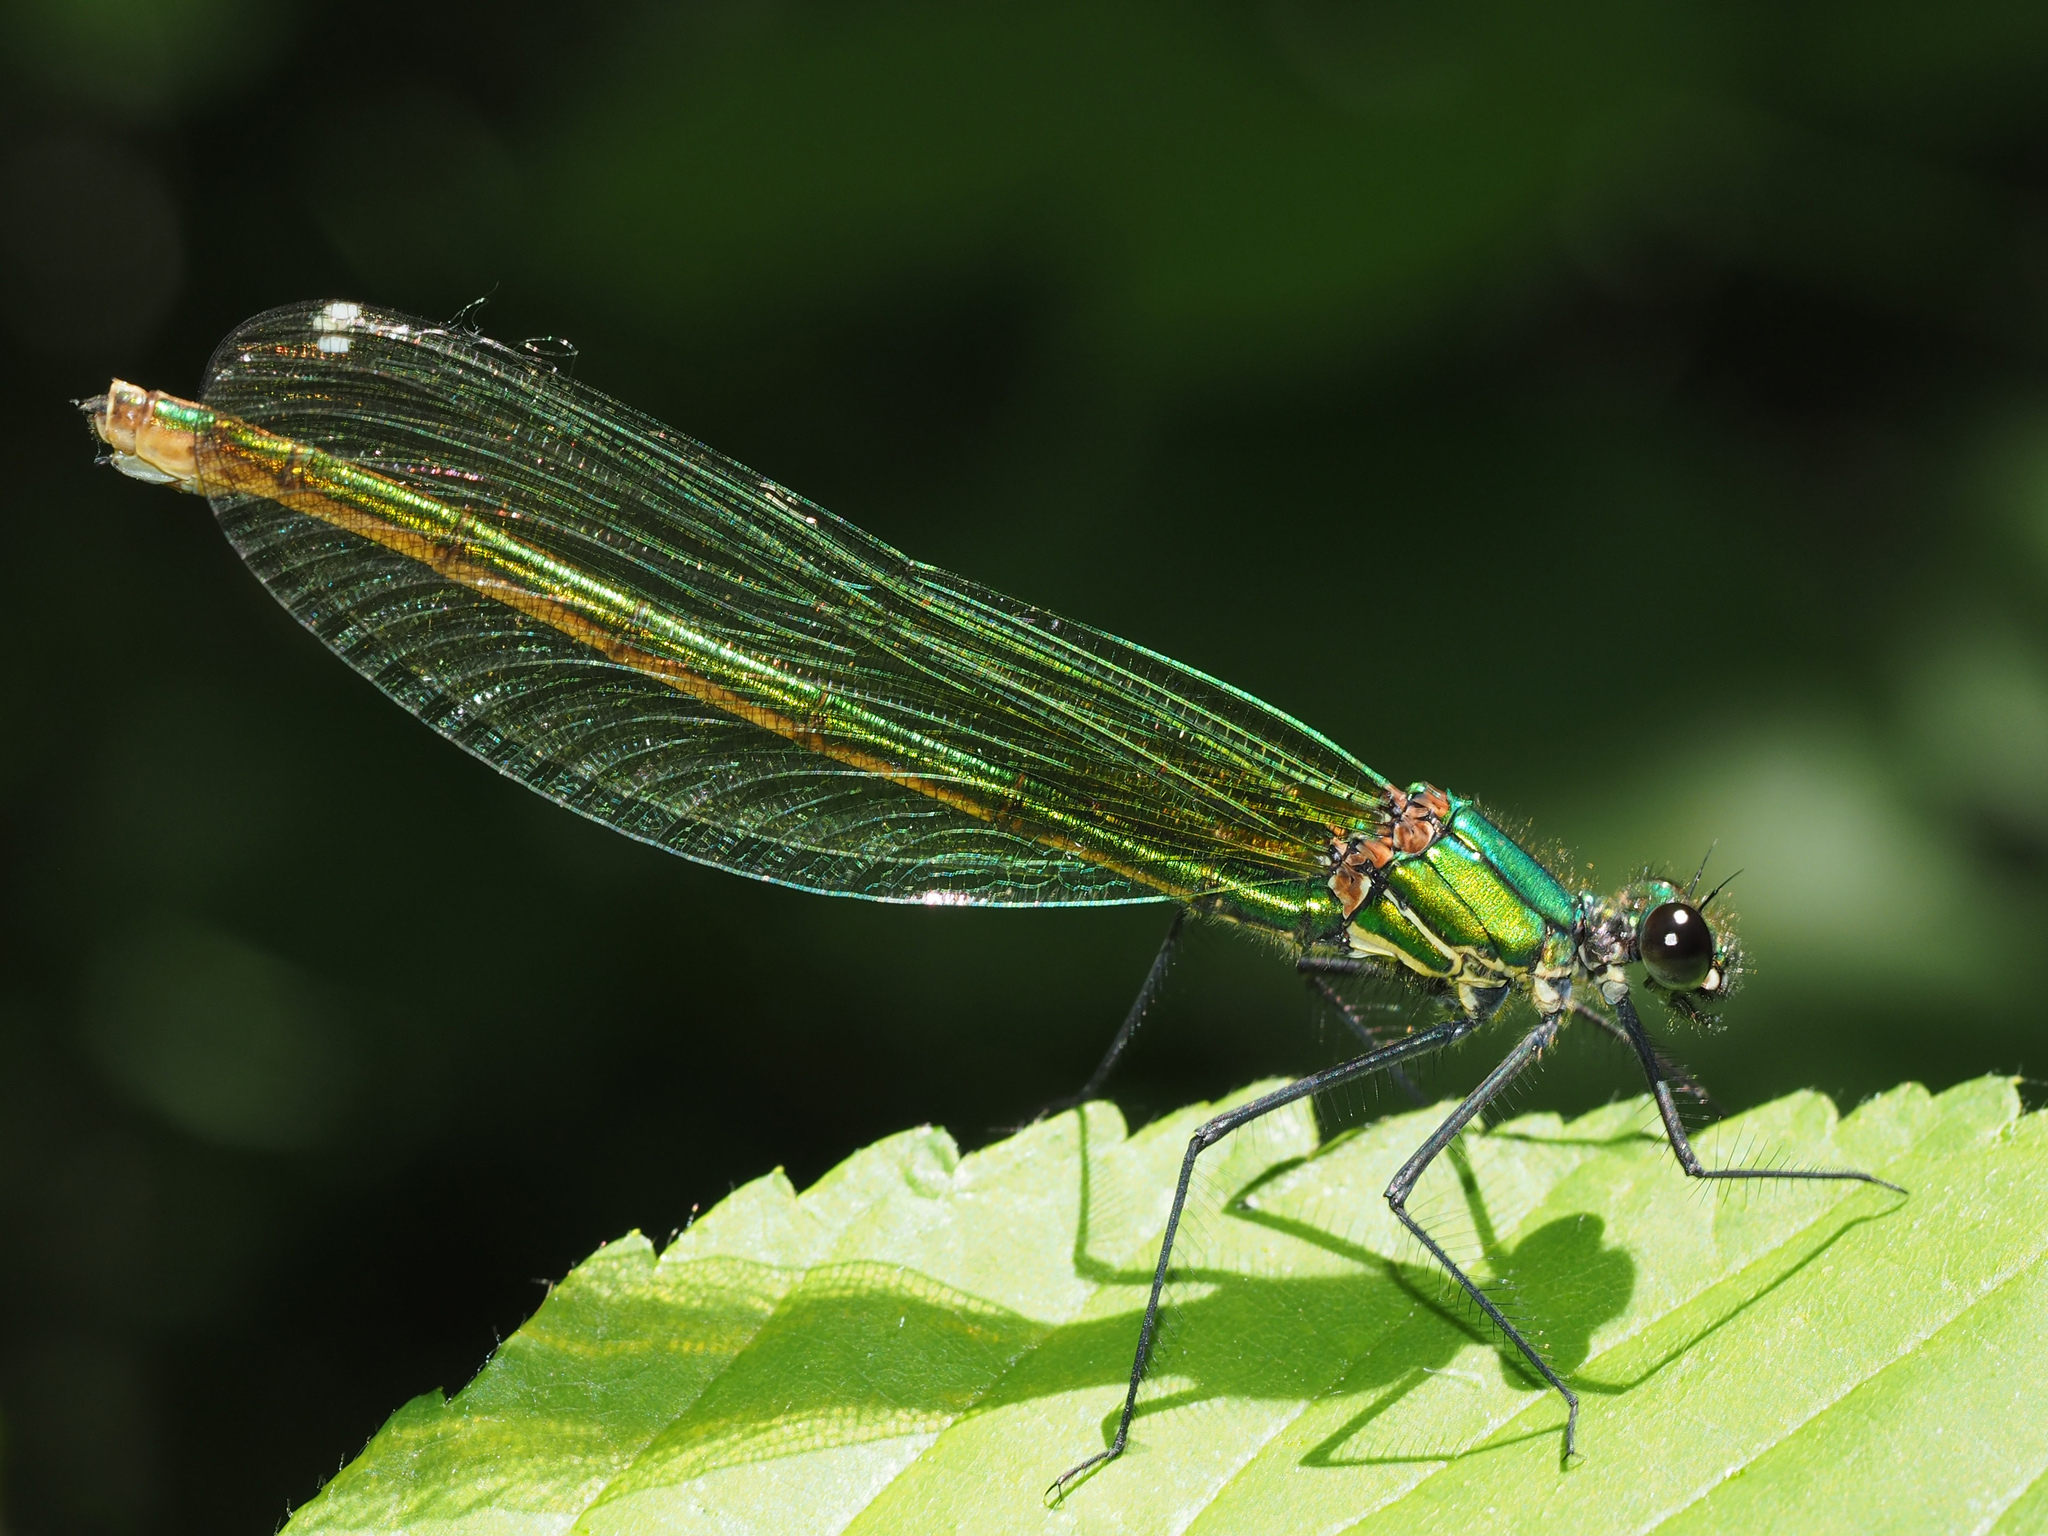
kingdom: Animalia
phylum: Arthropoda
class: Insecta
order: Odonata
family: Calopterygidae
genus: Calopteryx
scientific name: Calopteryx splendens
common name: Banded demoiselle
